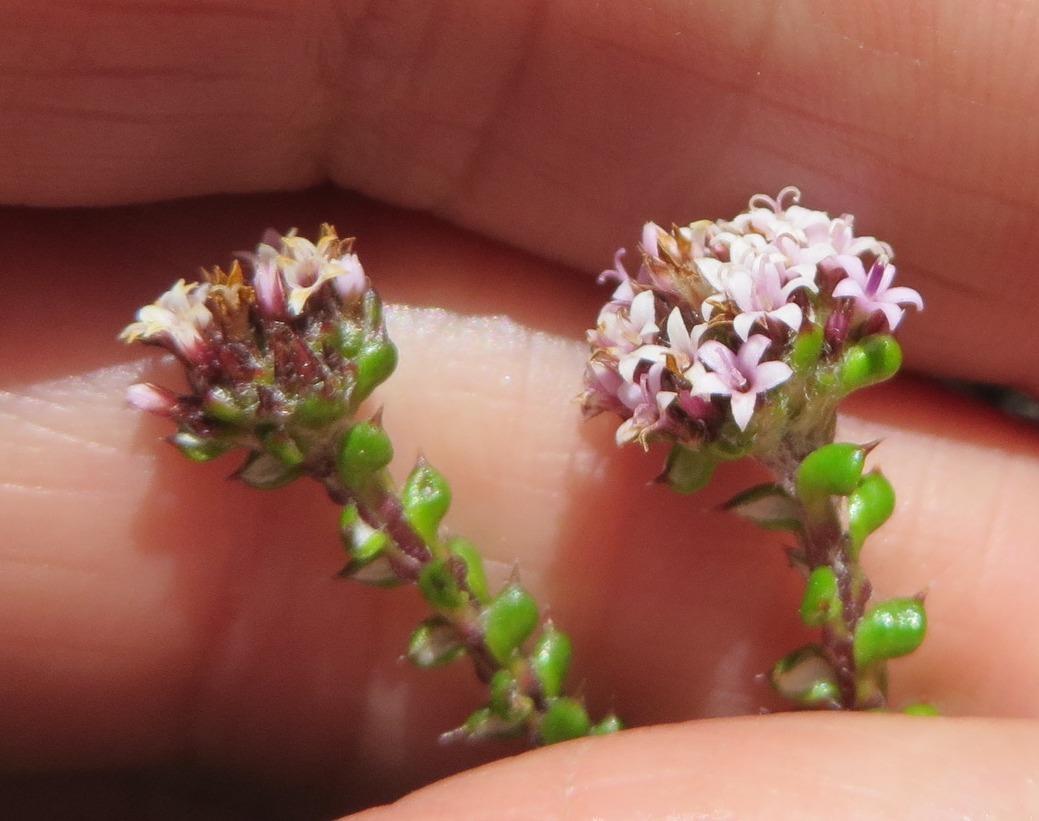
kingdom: Plantae
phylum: Tracheophyta
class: Magnoliopsida
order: Asterales
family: Asteraceae
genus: Stoebe
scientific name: Stoebe cyathuloides
